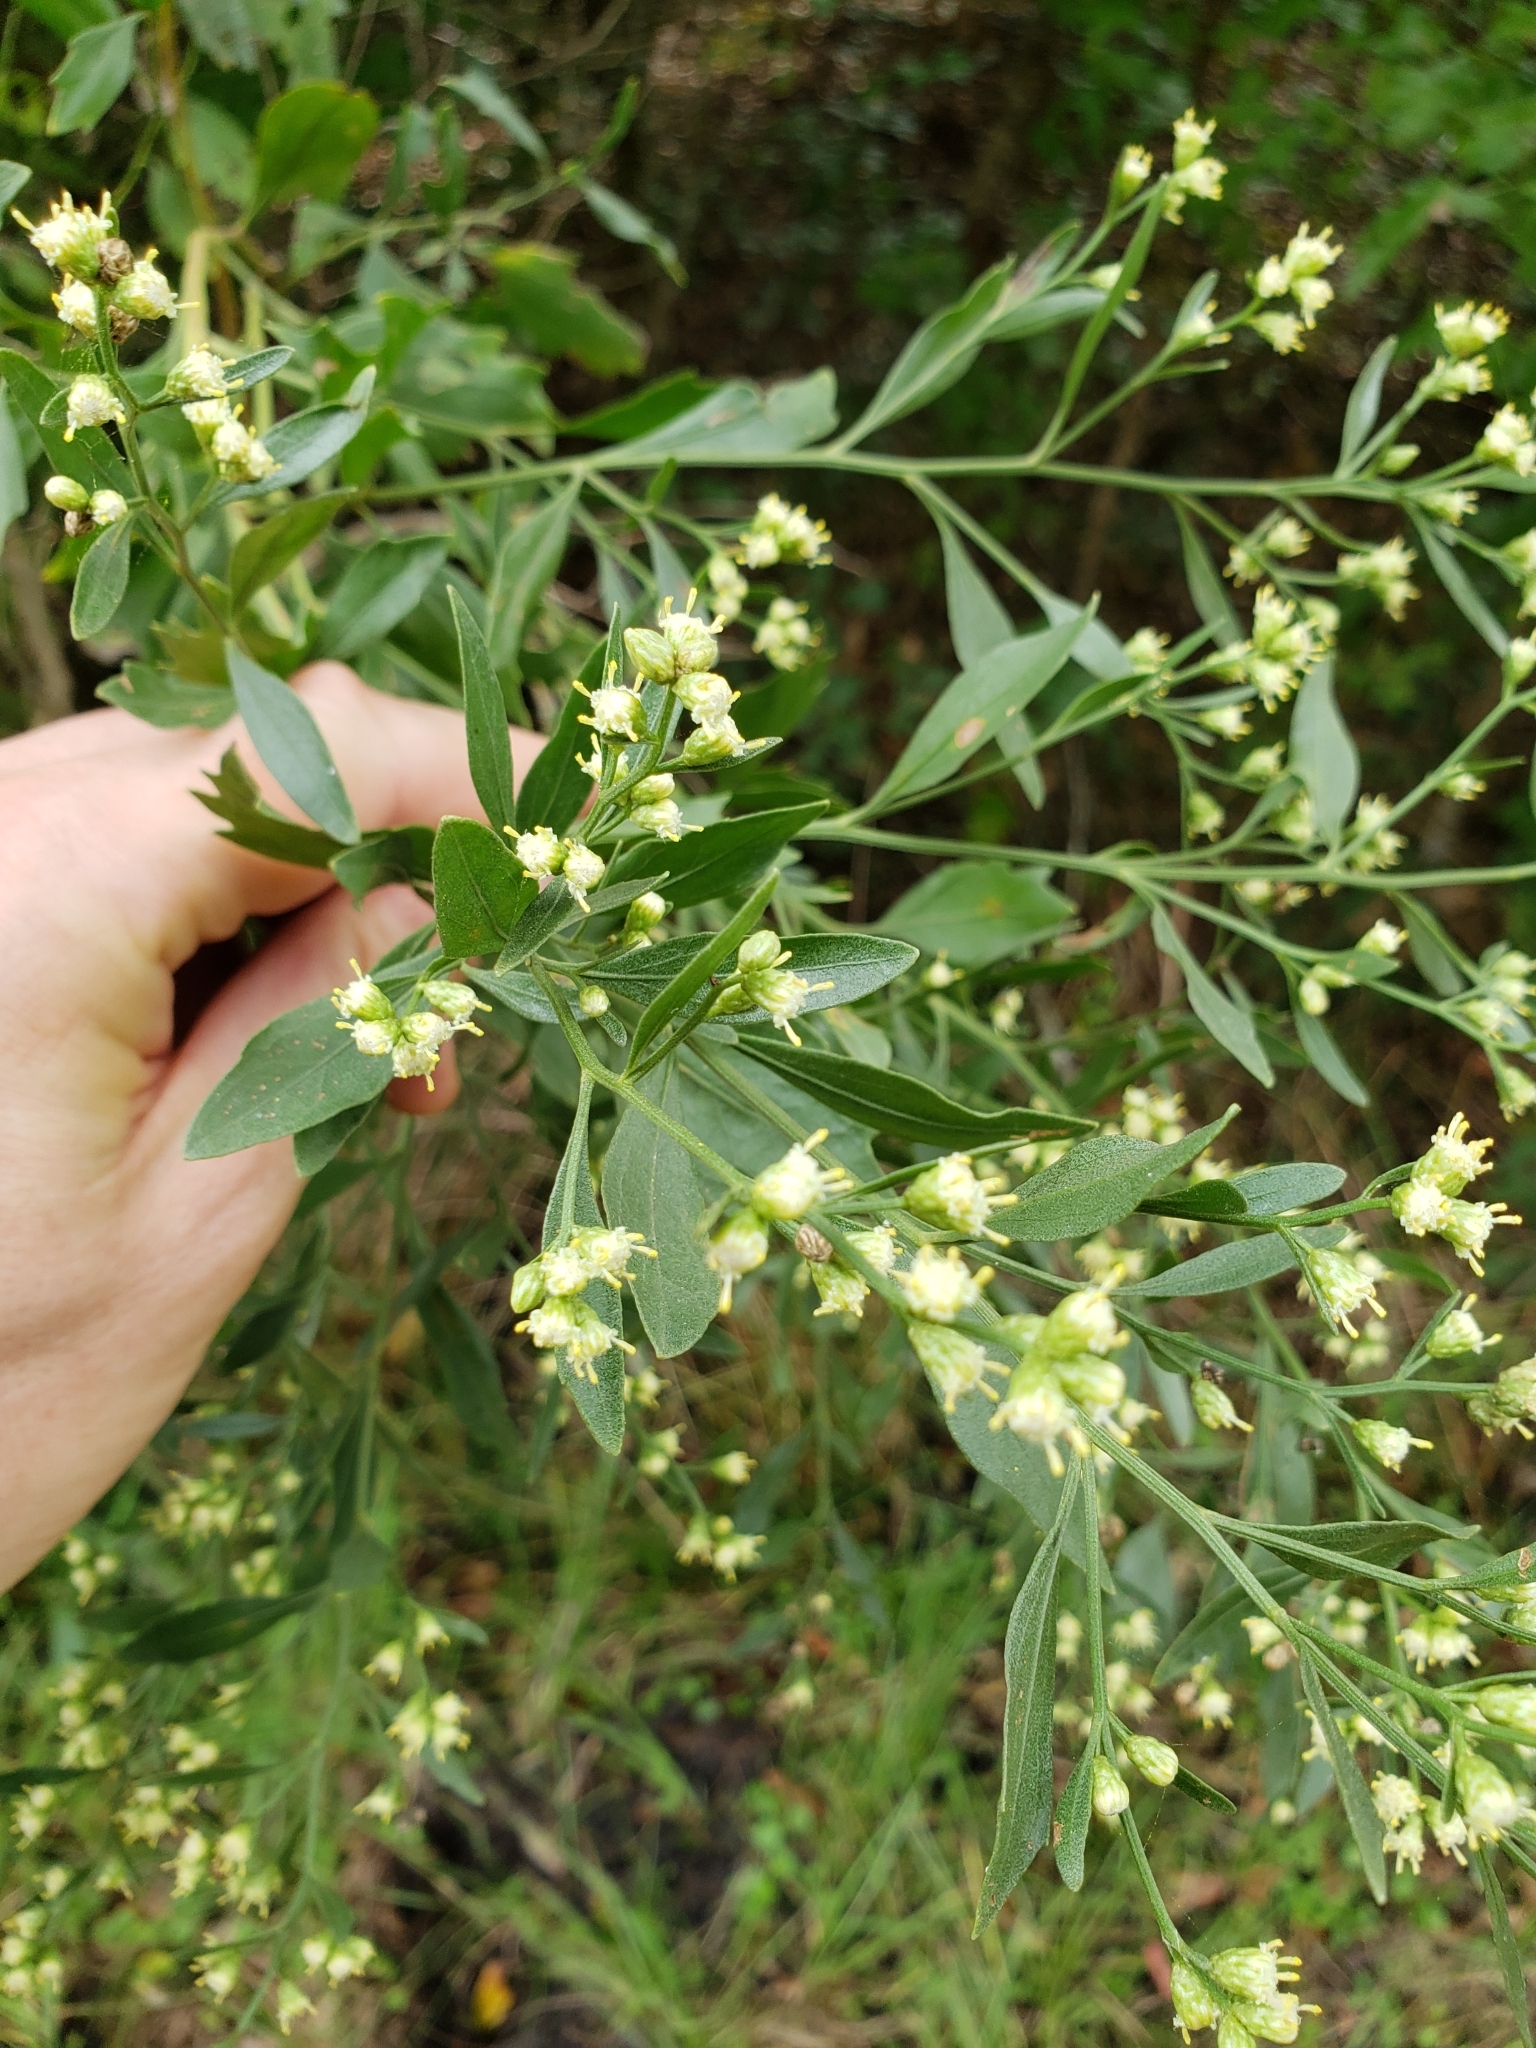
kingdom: Plantae
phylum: Tracheophyta
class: Magnoliopsida
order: Asterales
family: Asteraceae
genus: Baccharis
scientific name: Baccharis halimifolia
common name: Eastern baccharis
